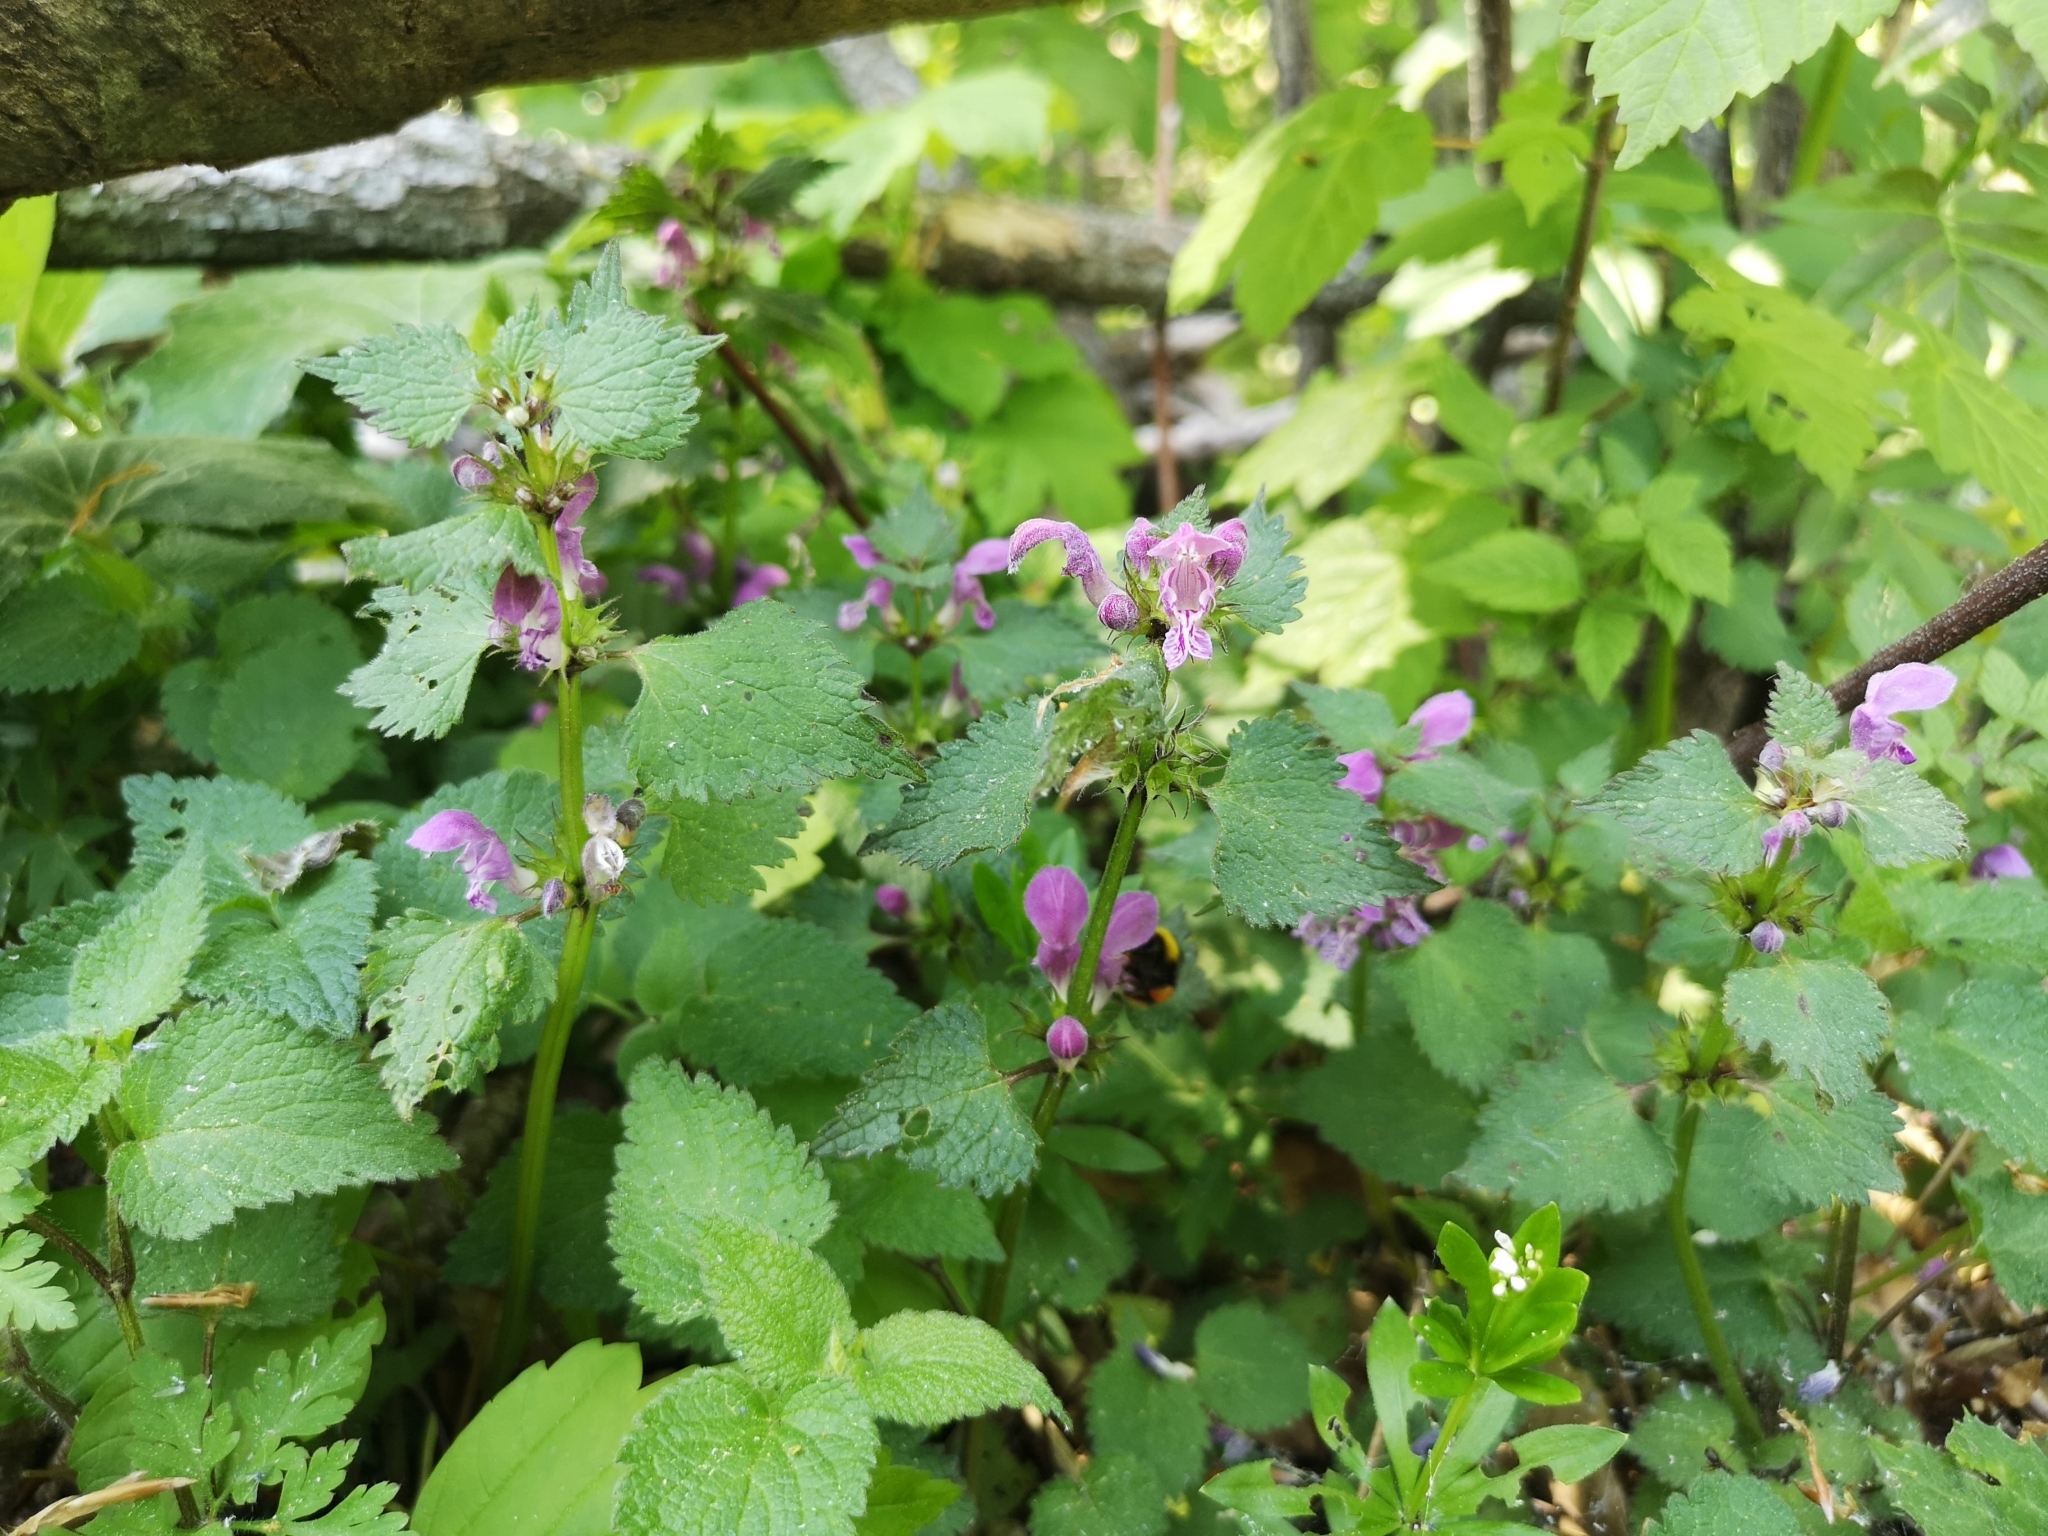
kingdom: Plantae
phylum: Tracheophyta
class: Magnoliopsida
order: Lamiales
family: Lamiaceae
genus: Lamium
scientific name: Lamium maculatum
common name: Spotted dead-nettle
